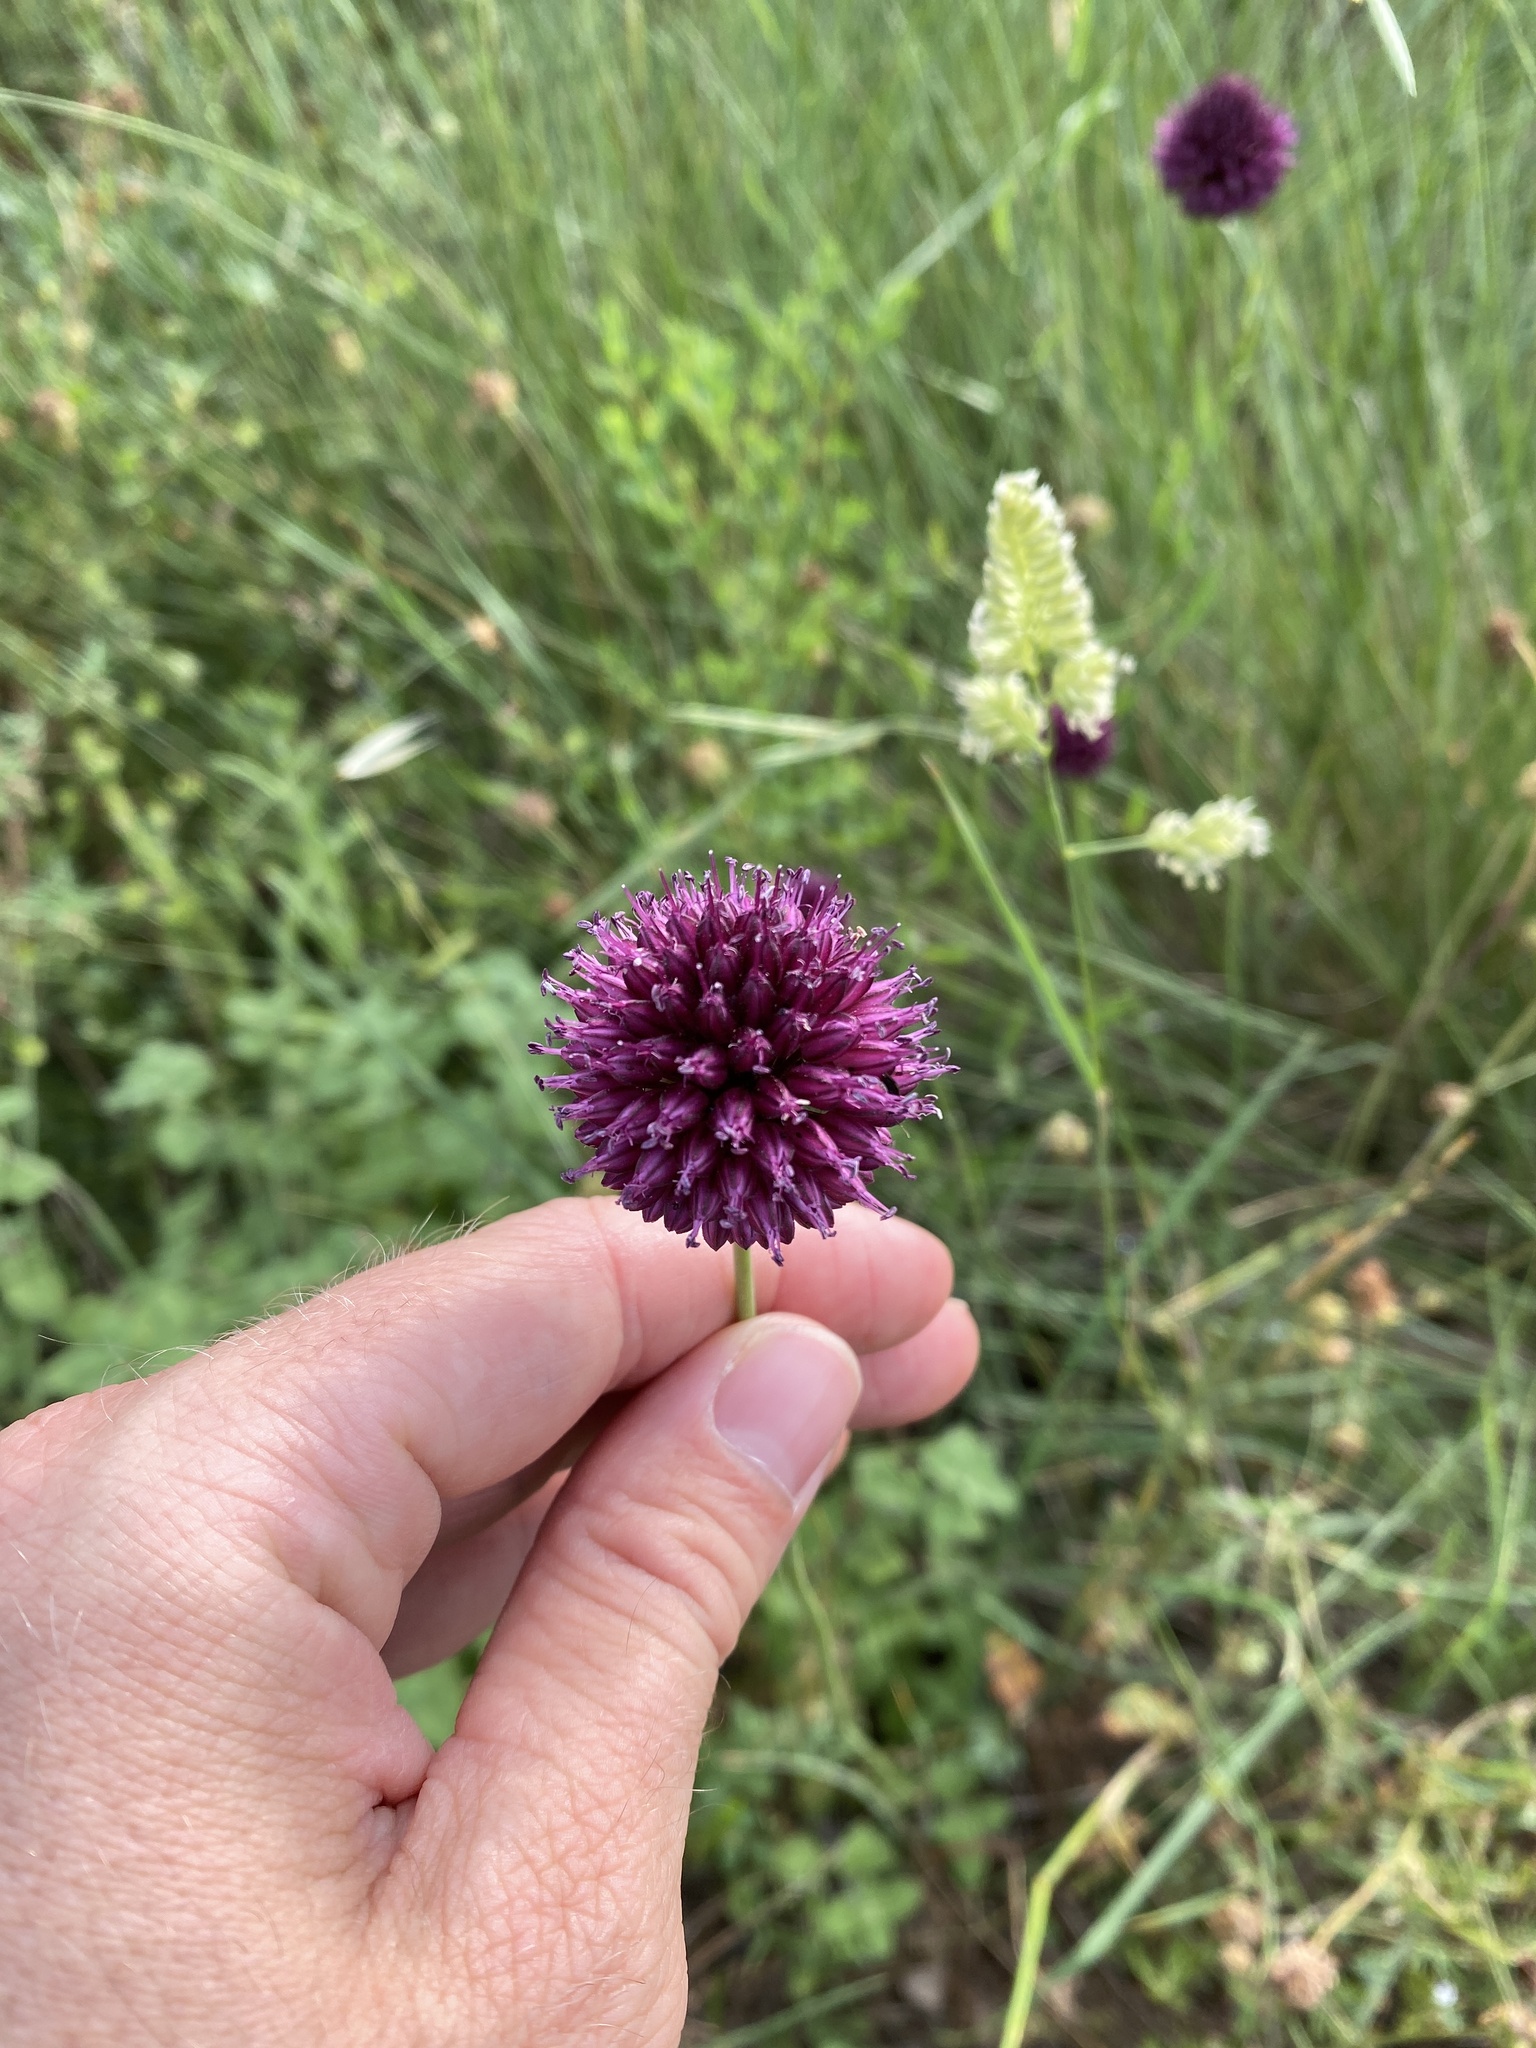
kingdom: Plantae
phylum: Tracheophyta
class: Liliopsida
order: Asparagales
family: Amaryllidaceae
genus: Allium
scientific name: Allium sphaerocephalon
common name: Round-headed leek
